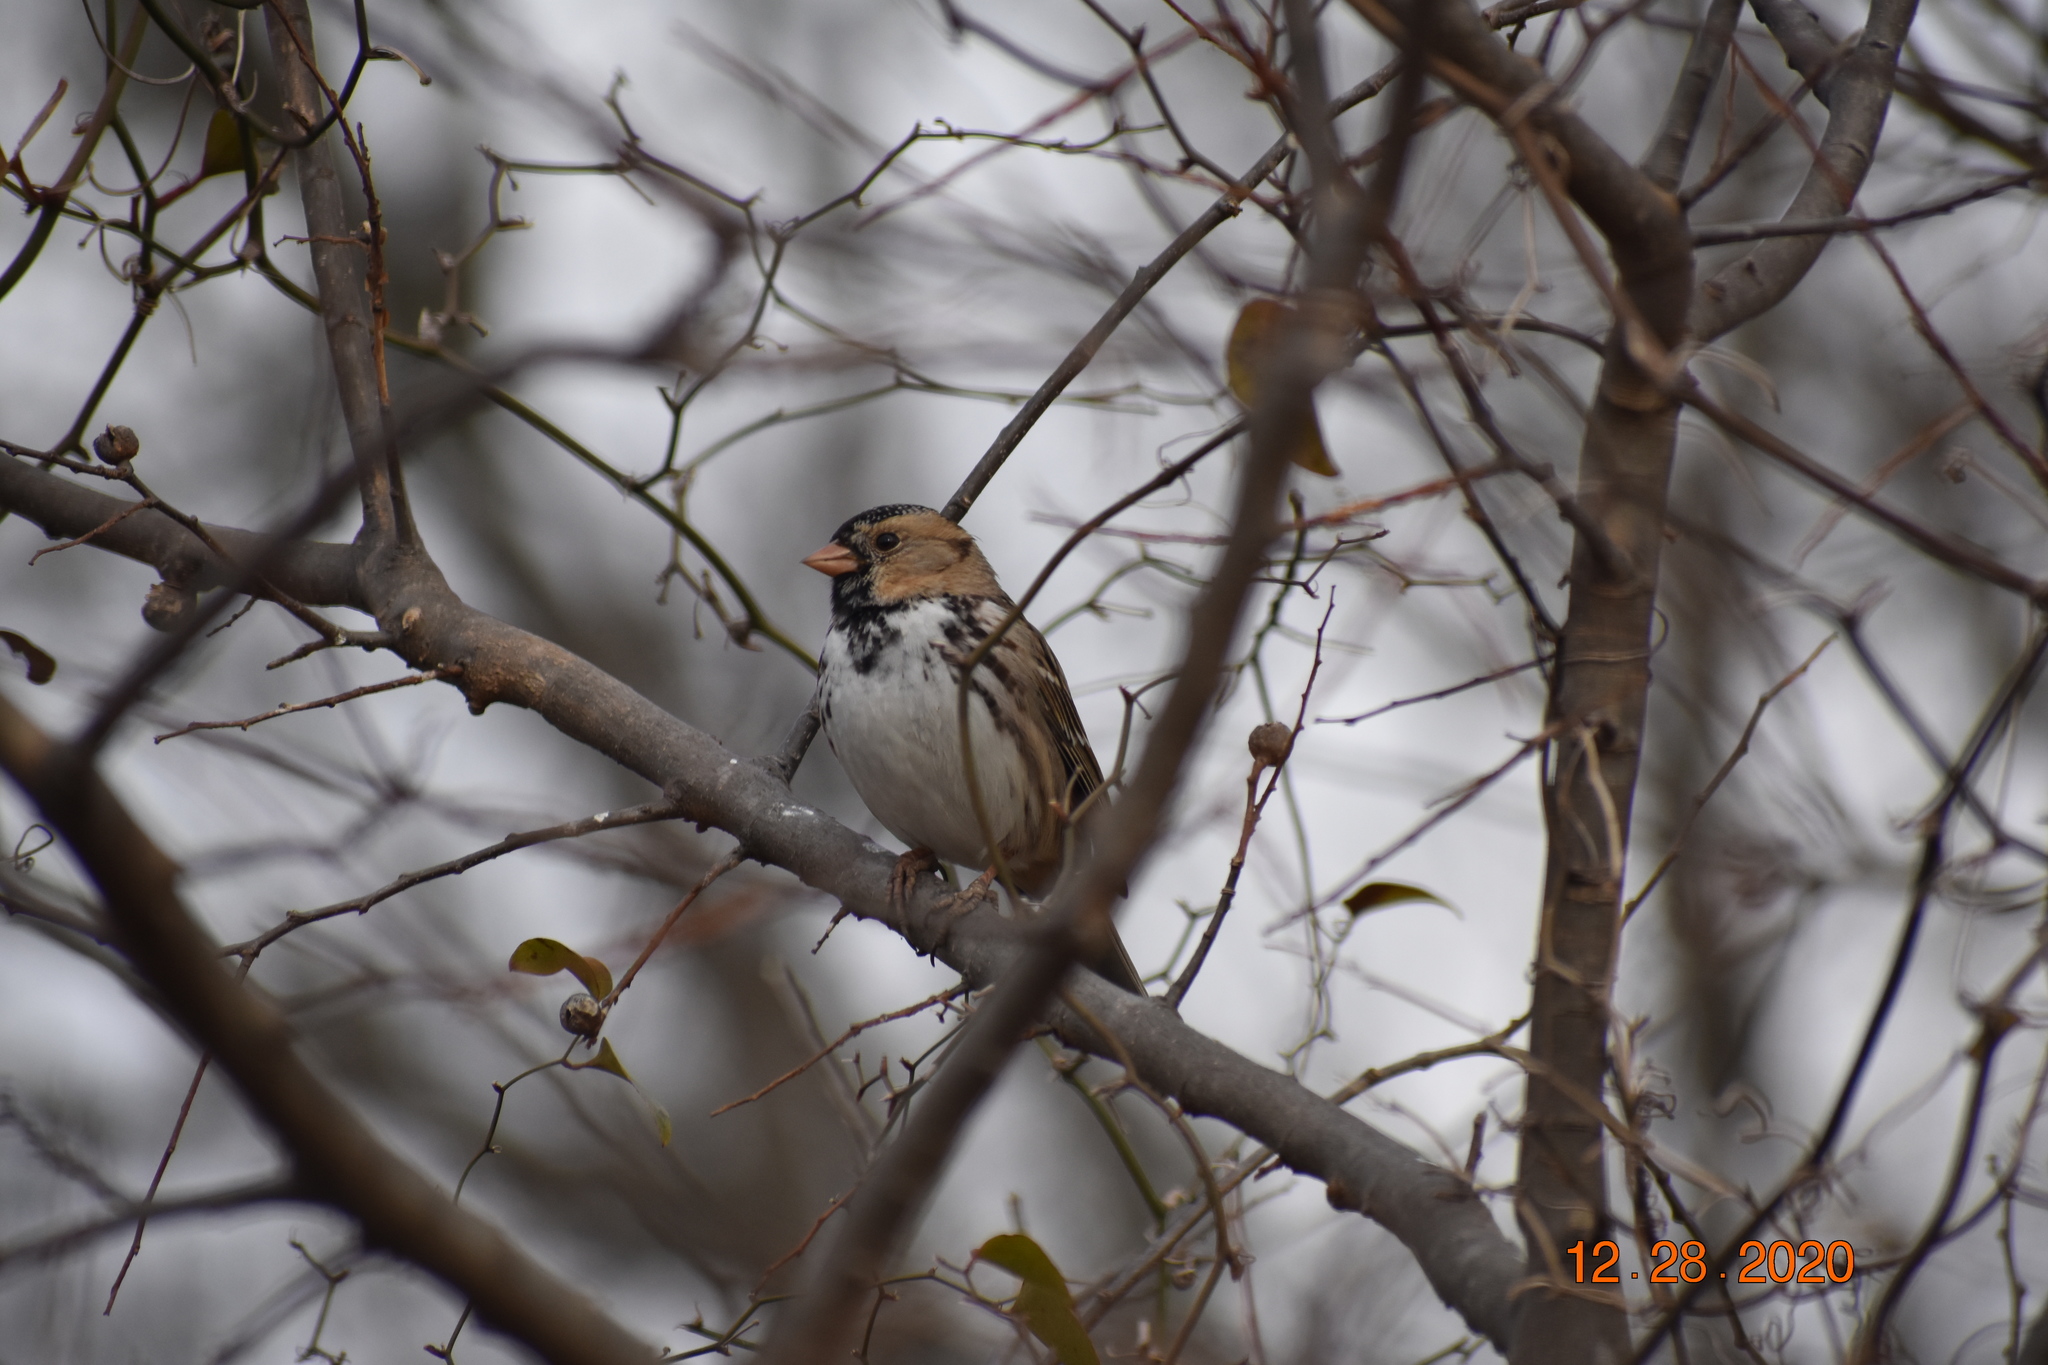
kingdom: Animalia
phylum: Chordata
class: Aves
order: Passeriformes
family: Passerellidae
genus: Zonotrichia
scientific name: Zonotrichia querula
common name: Harris's sparrow
